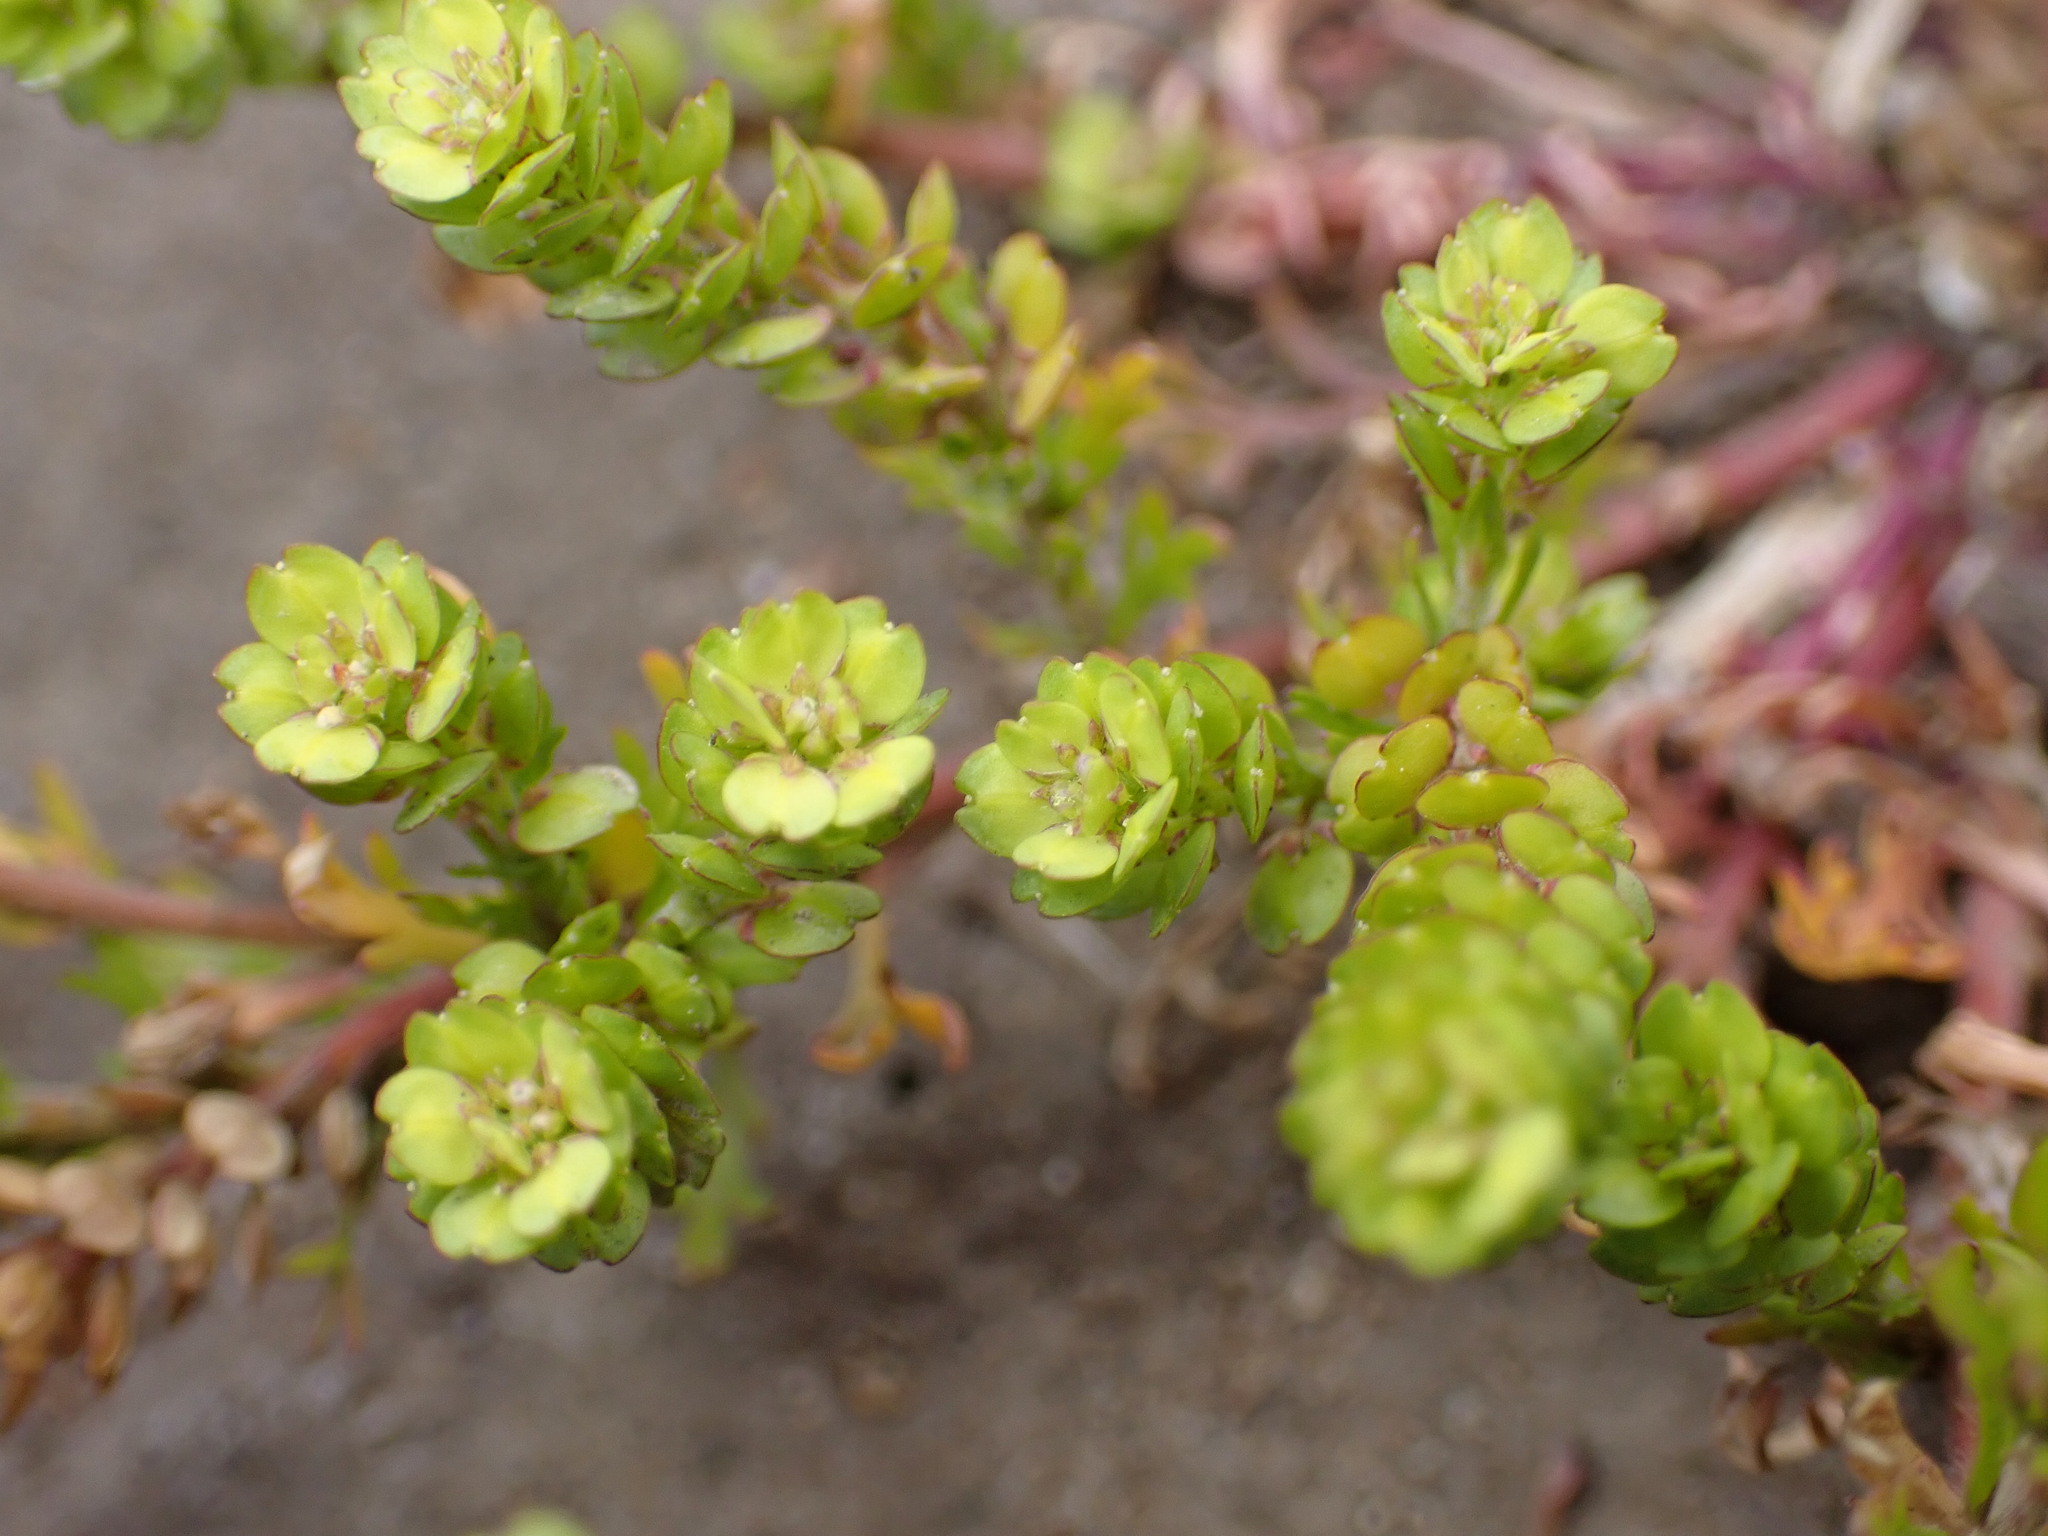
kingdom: Plantae
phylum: Tracheophyta
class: Magnoliopsida
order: Brassicales
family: Brassicaceae
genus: Lepidium
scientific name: Lepidium strictum
